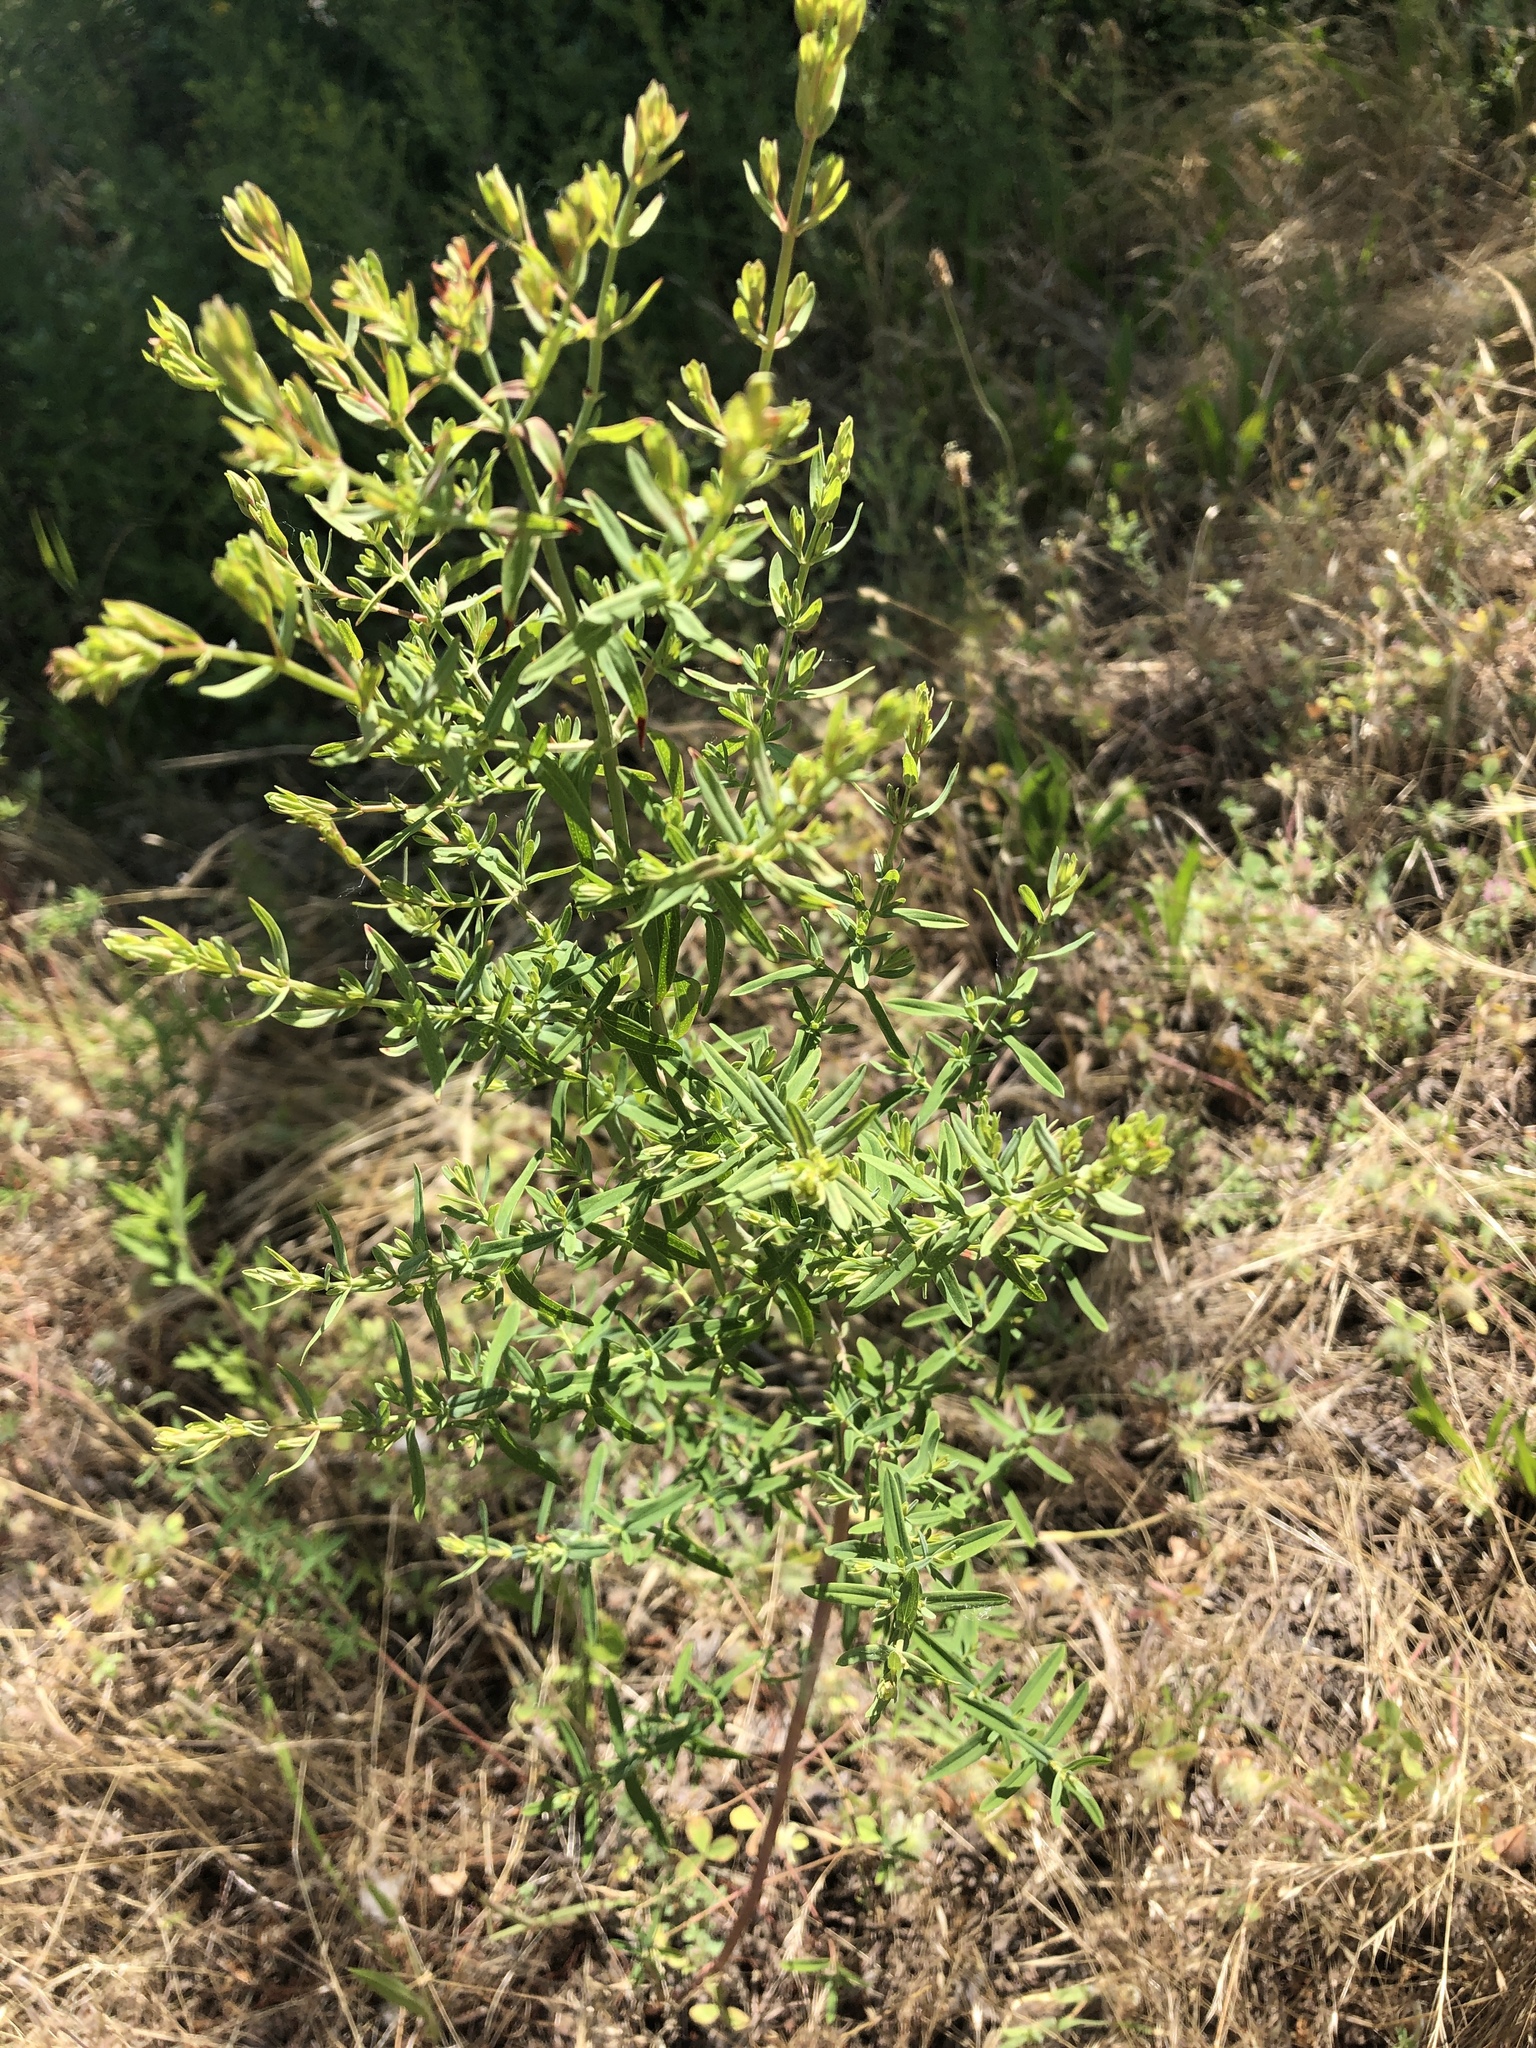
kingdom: Plantae
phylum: Tracheophyta
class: Magnoliopsida
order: Malpighiales
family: Hypericaceae
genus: Hypericum
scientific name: Hypericum perforatum
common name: Common st. johnswort
